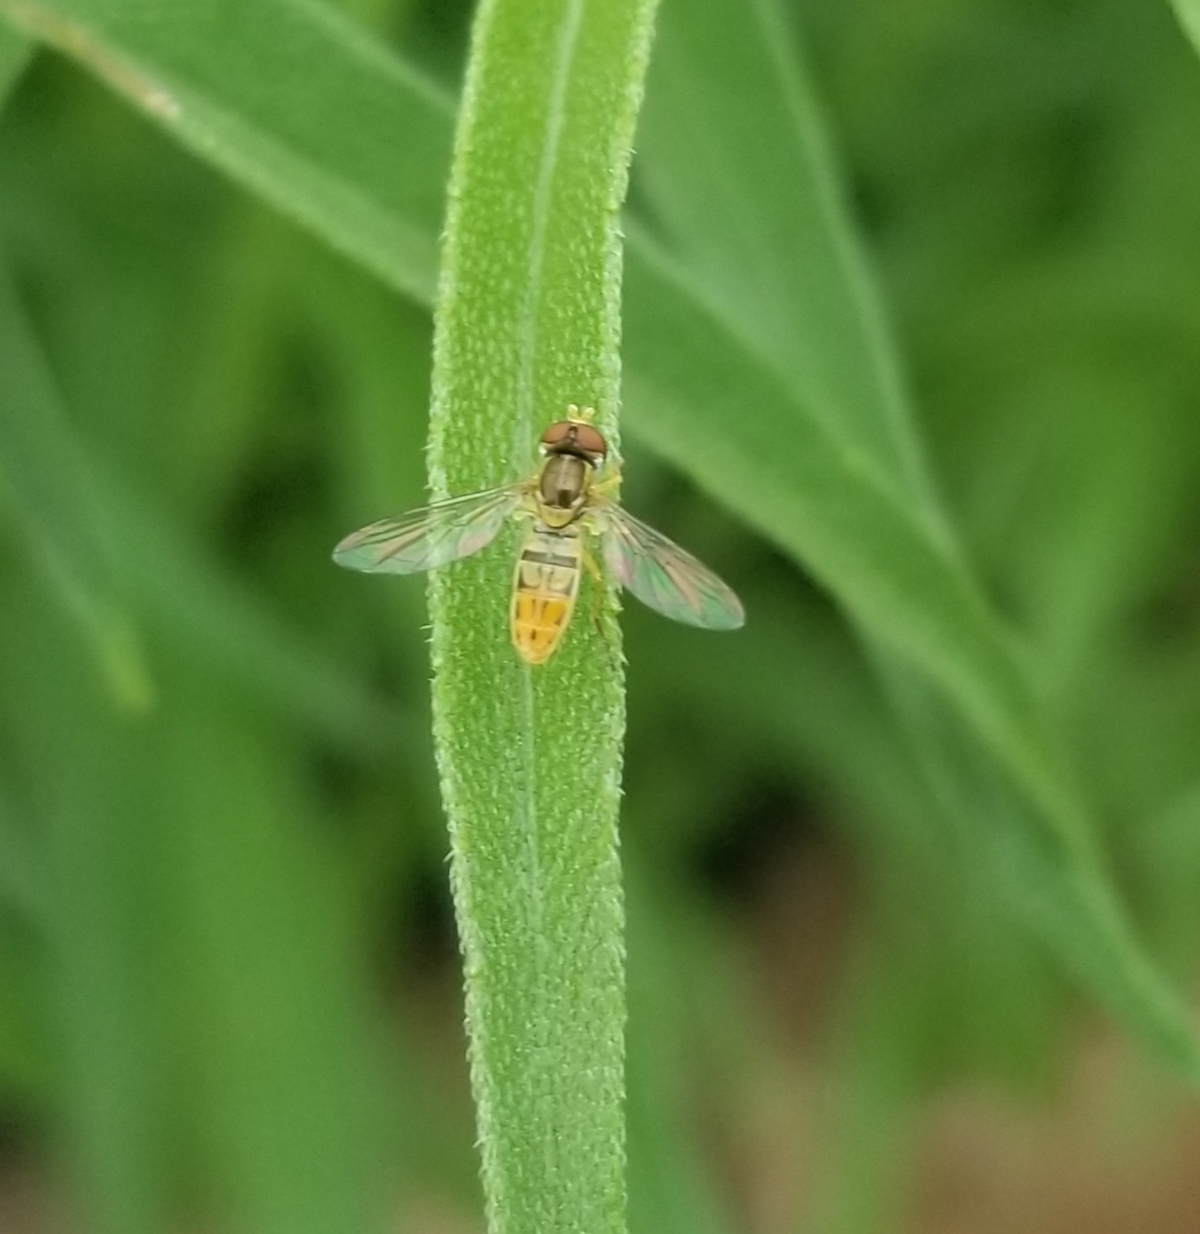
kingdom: Animalia
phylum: Arthropoda
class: Insecta
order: Diptera
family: Syrphidae
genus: Toxomerus
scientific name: Toxomerus marginatus
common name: Syrphid fly
